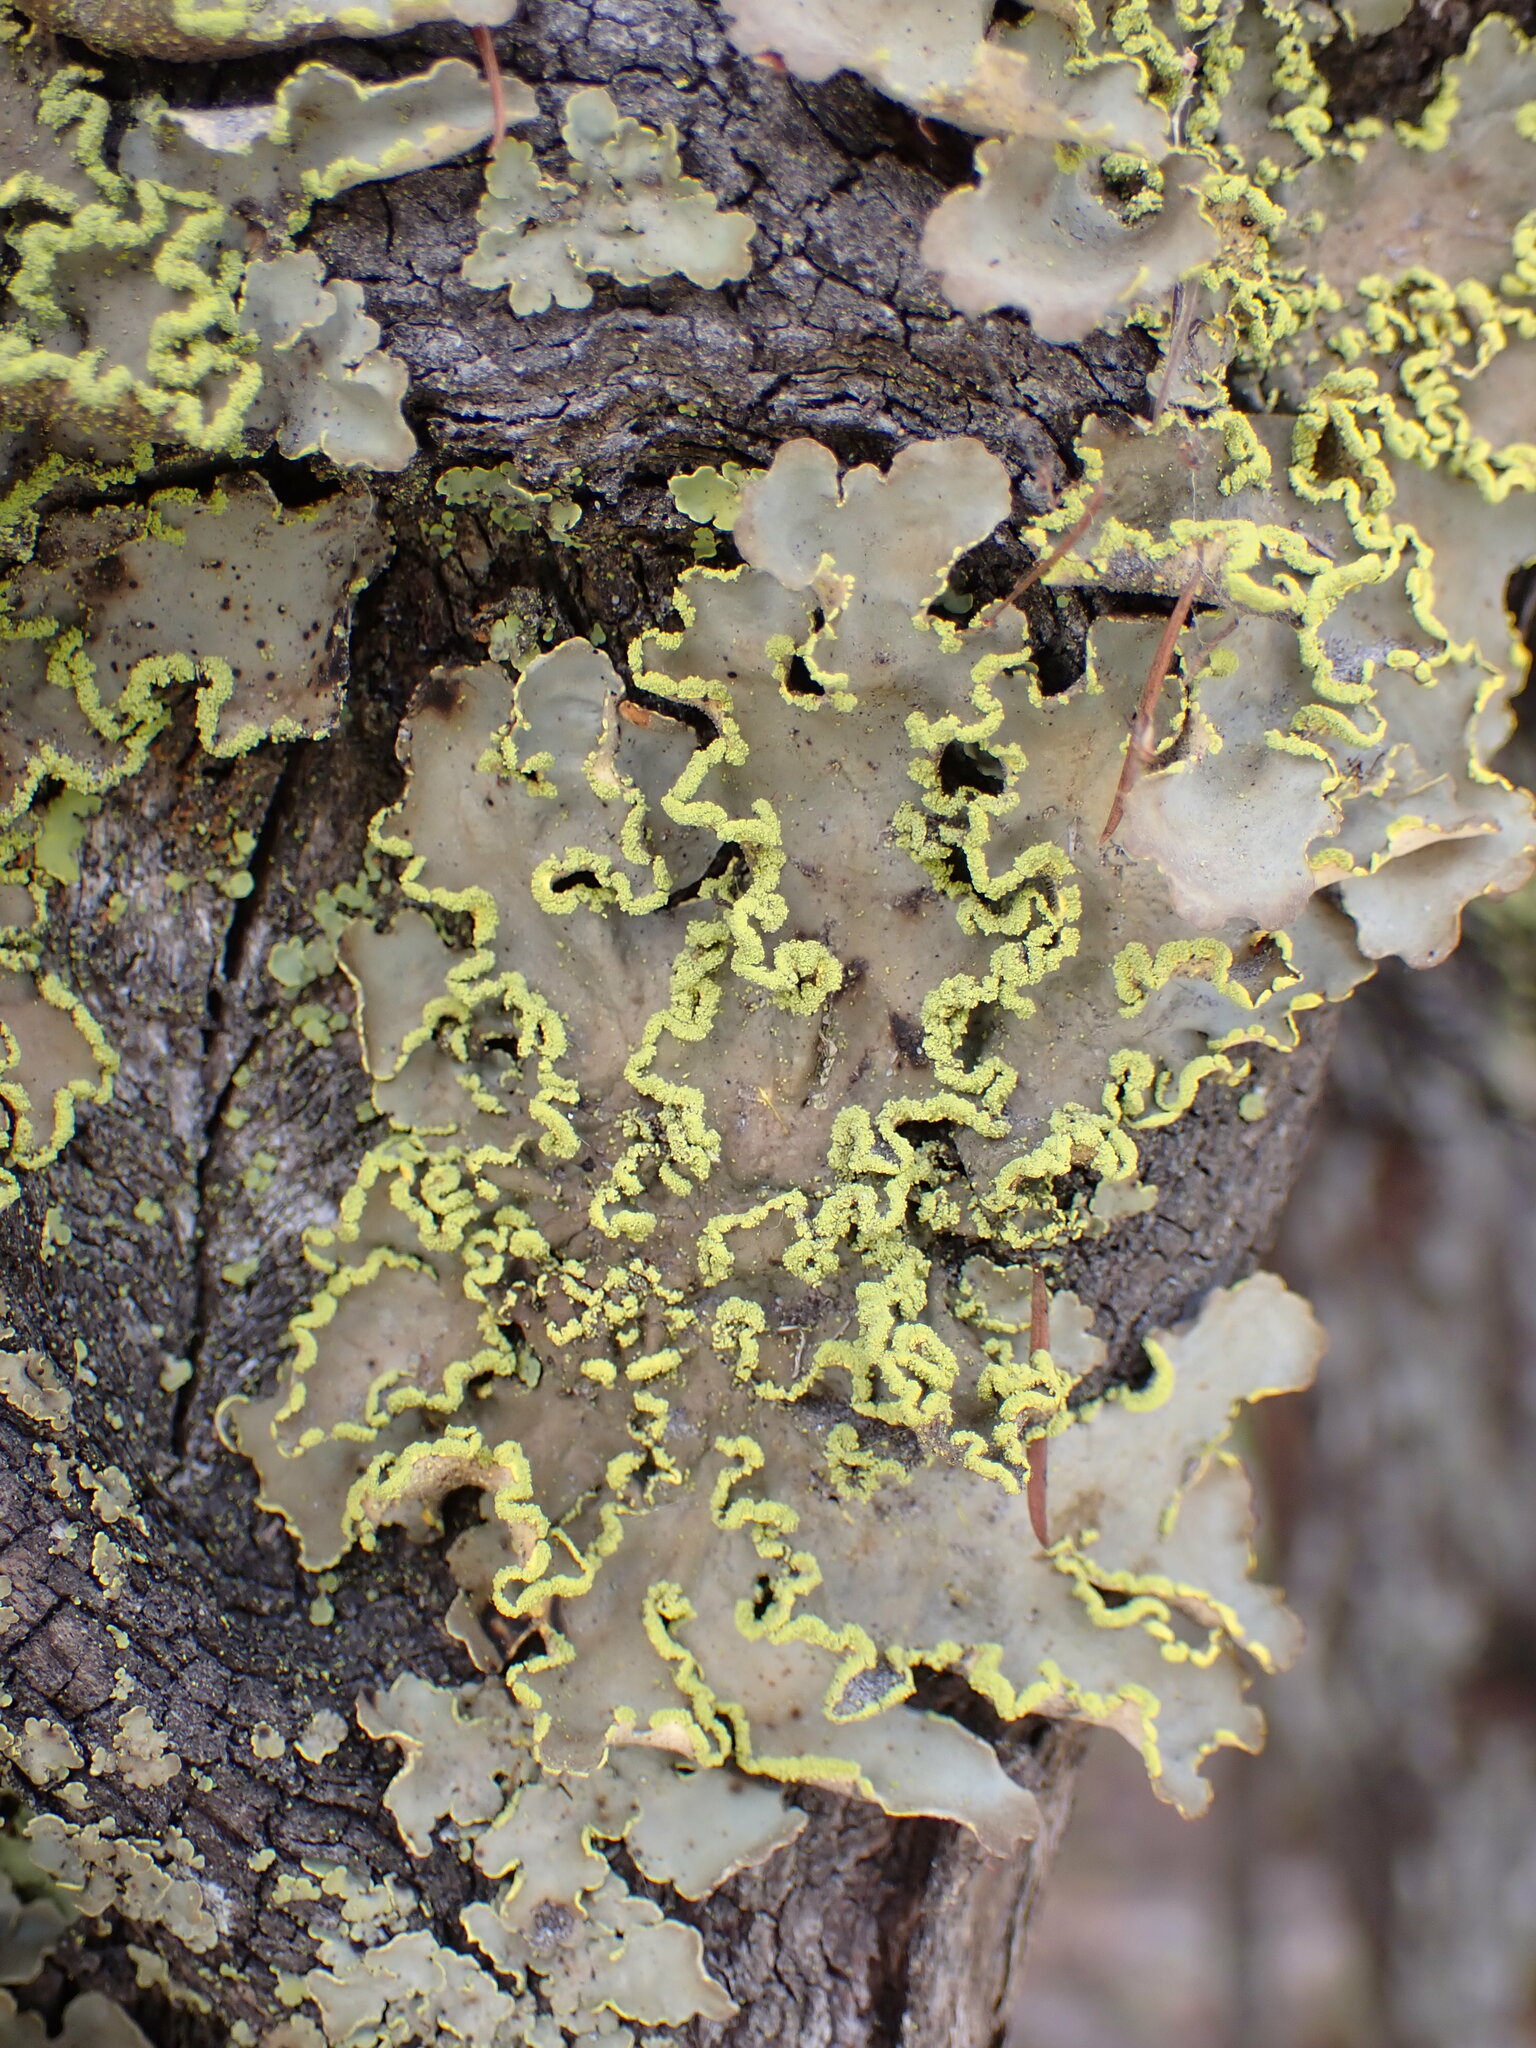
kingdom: Fungi
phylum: Ascomycota
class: Lecanoromycetes
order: Peltigerales
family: Lobariaceae
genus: Pseudocyphellaria
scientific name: Pseudocyphellaria aurata
